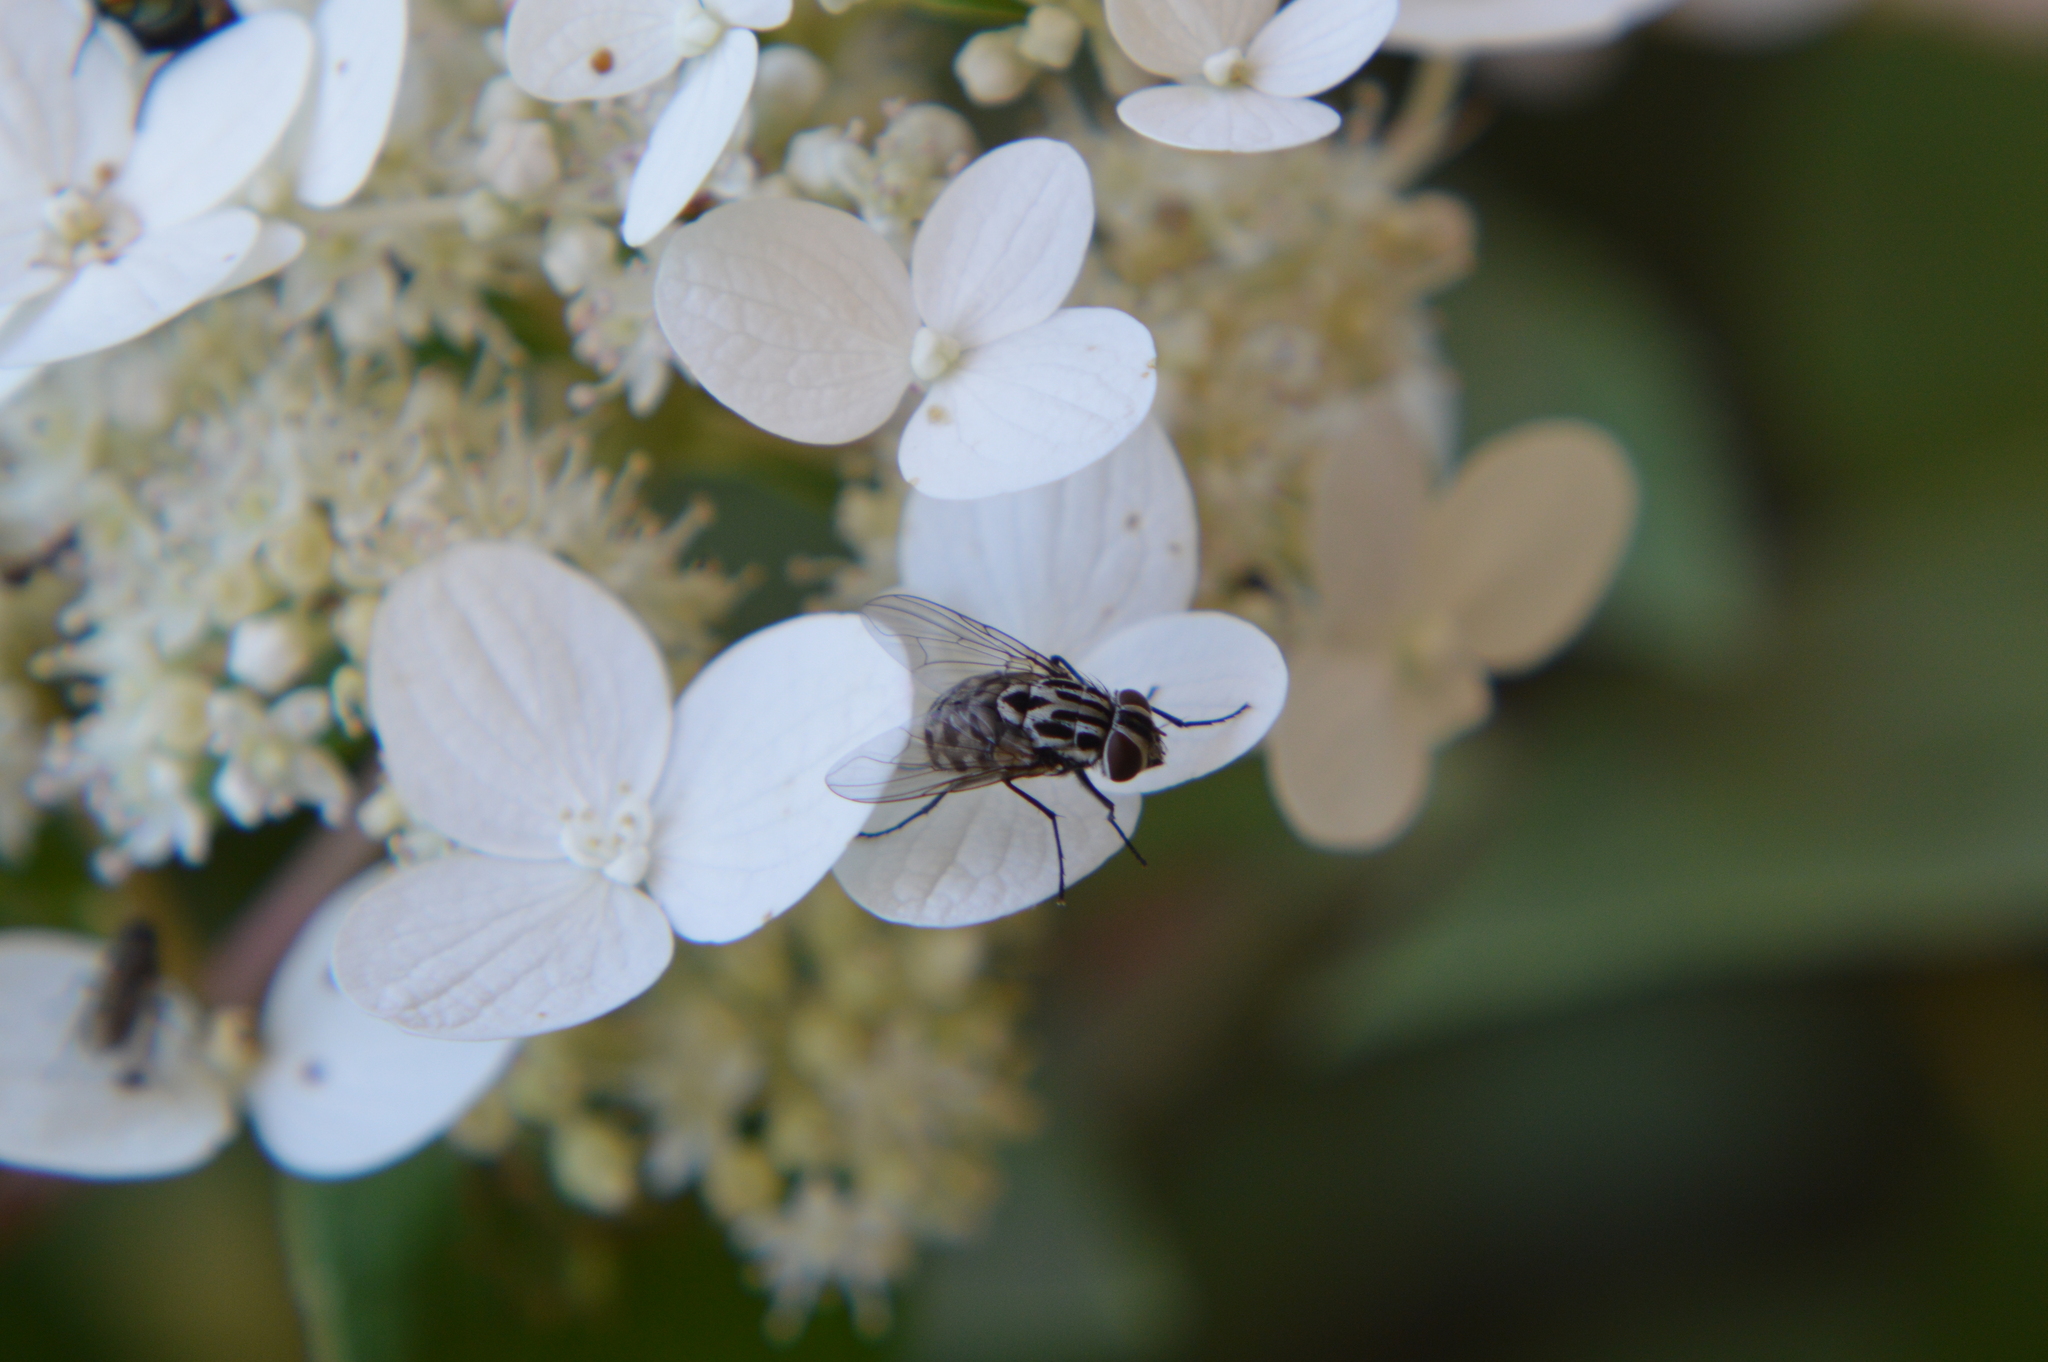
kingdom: Animalia
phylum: Arthropoda
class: Insecta
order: Diptera
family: Muscidae
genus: Graphomya
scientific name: Graphomya maculata
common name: Muscid fly
